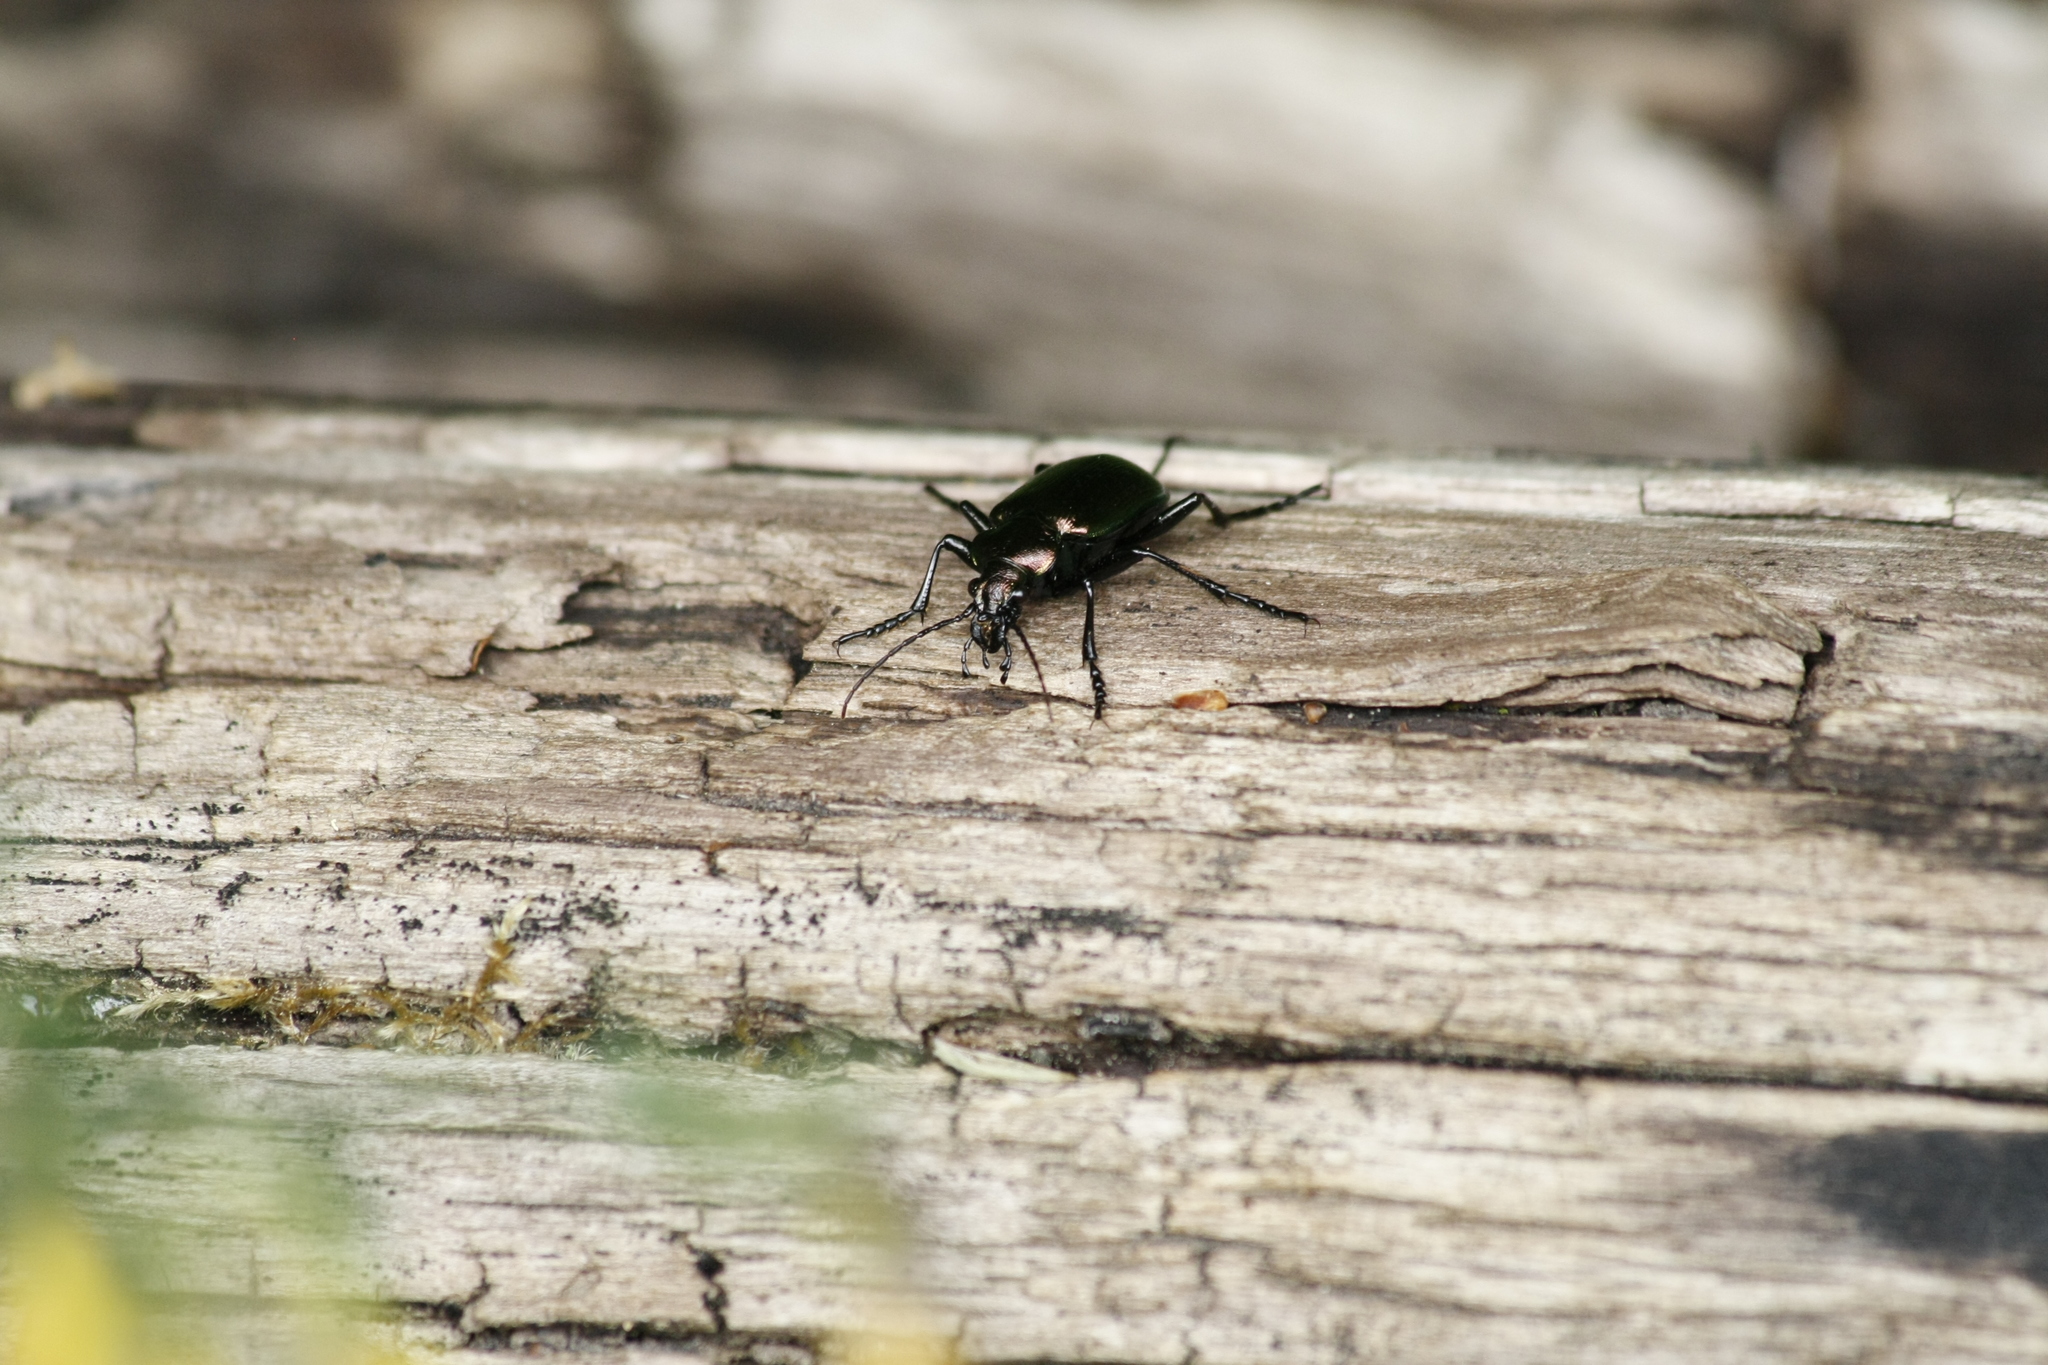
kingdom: Animalia
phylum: Arthropoda
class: Insecta
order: Coleoptera
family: Carabidae
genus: Calosoma
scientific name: Calosoma inquisitor
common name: Caterpillar-hunter
